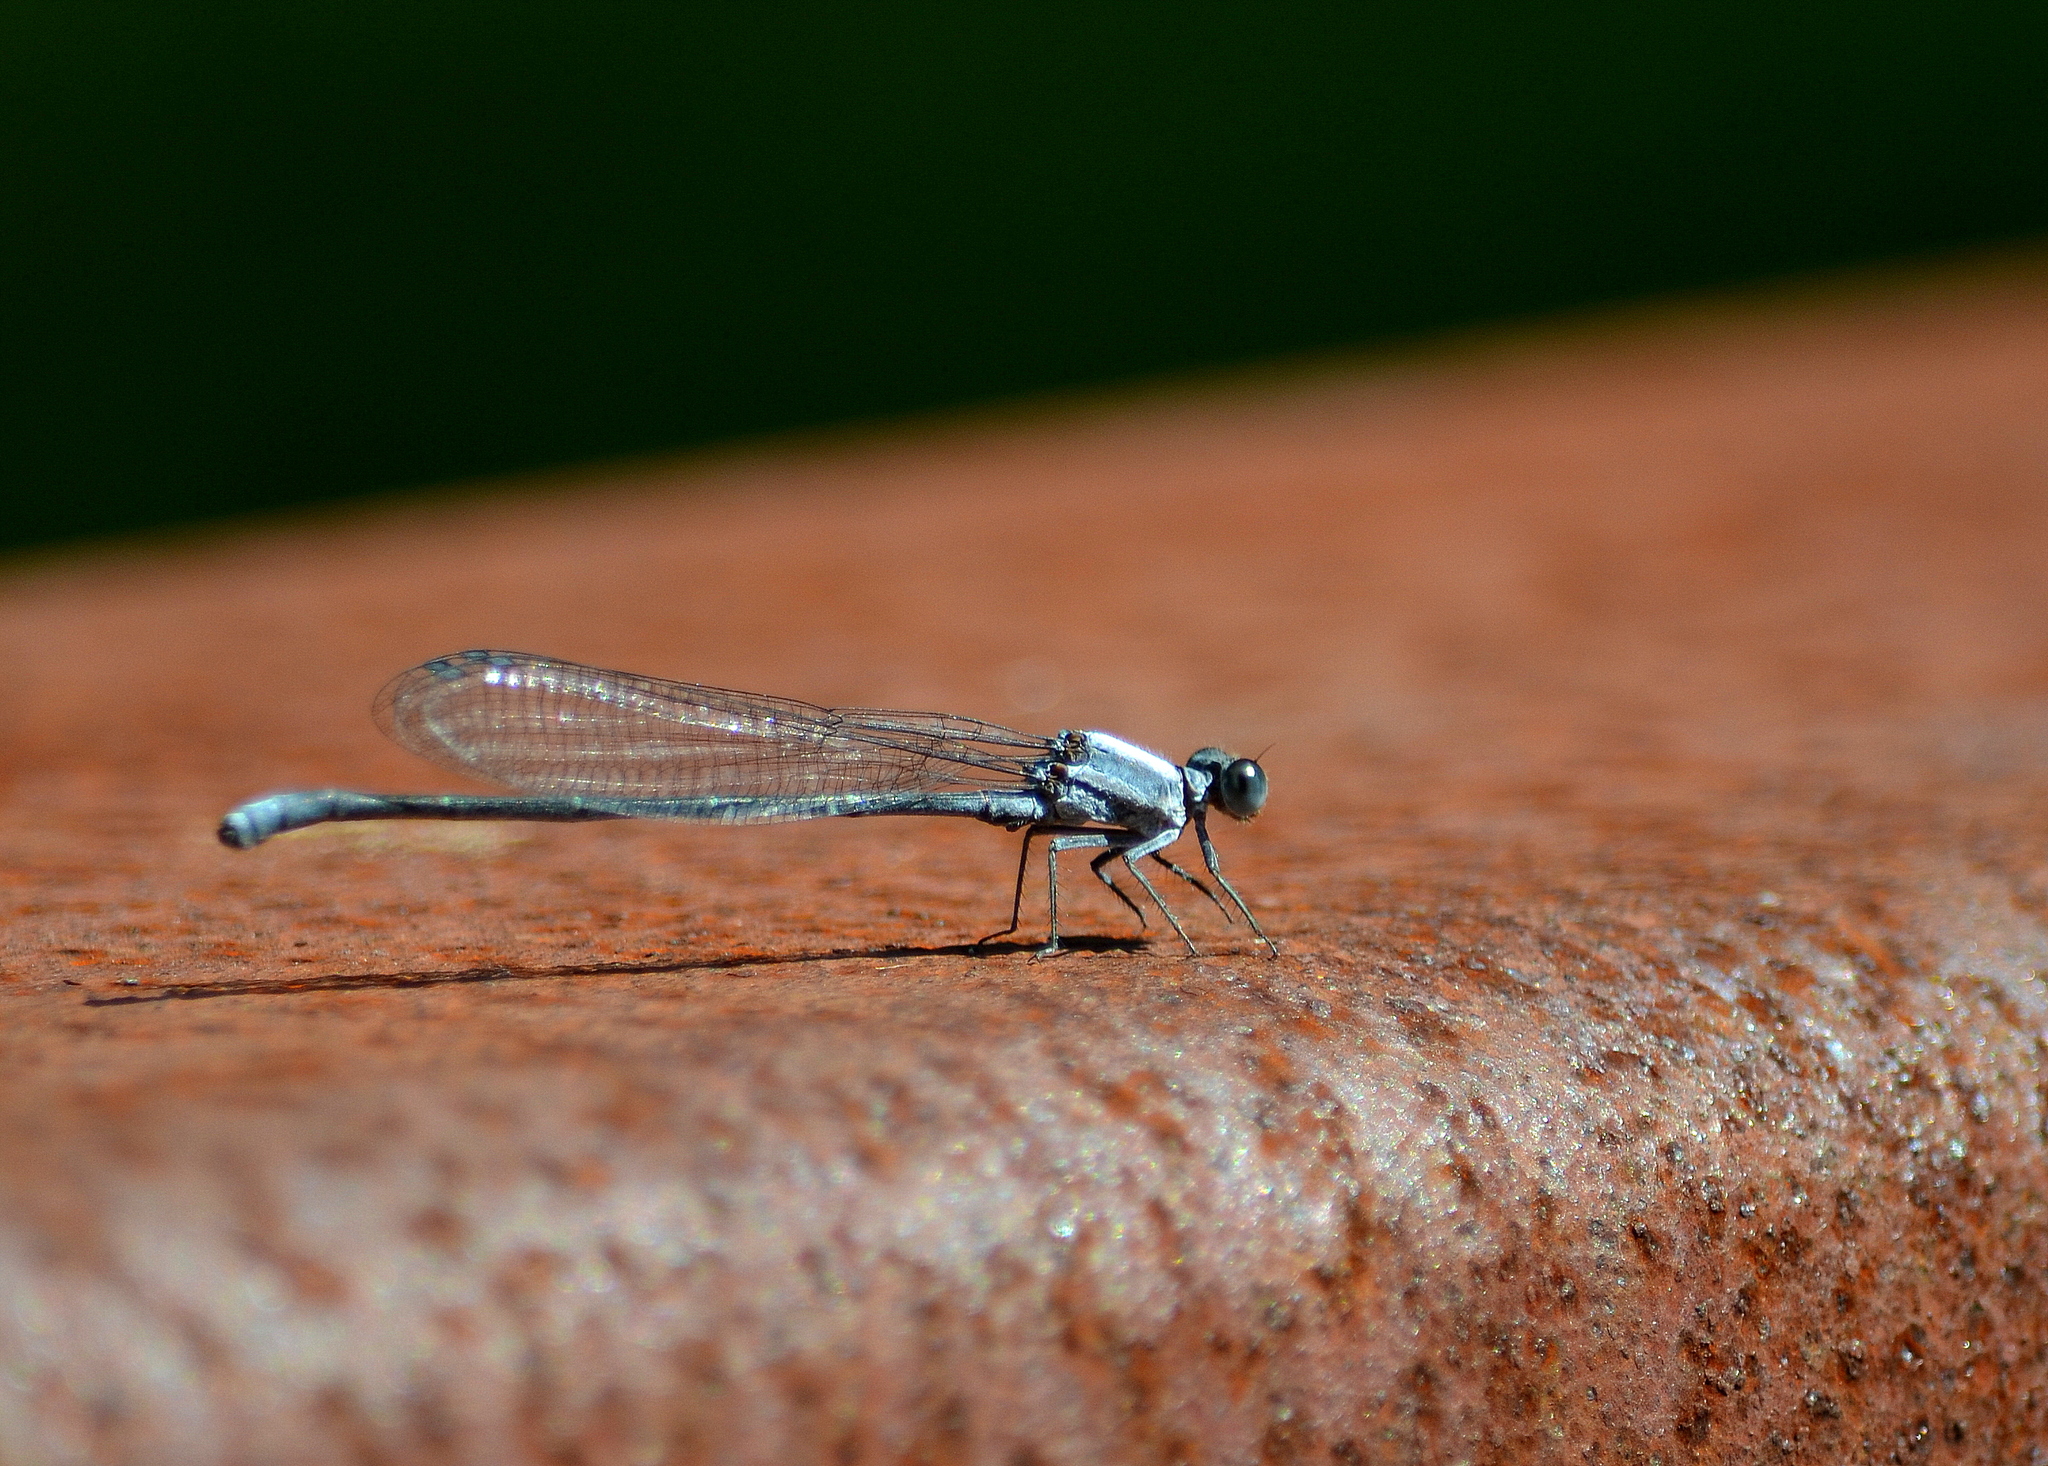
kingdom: Animalia
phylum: Arthropoda
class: Insecta
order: Odonata
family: Coenagrionidae
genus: Argia
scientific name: Argia moesta
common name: Powdered dancer
